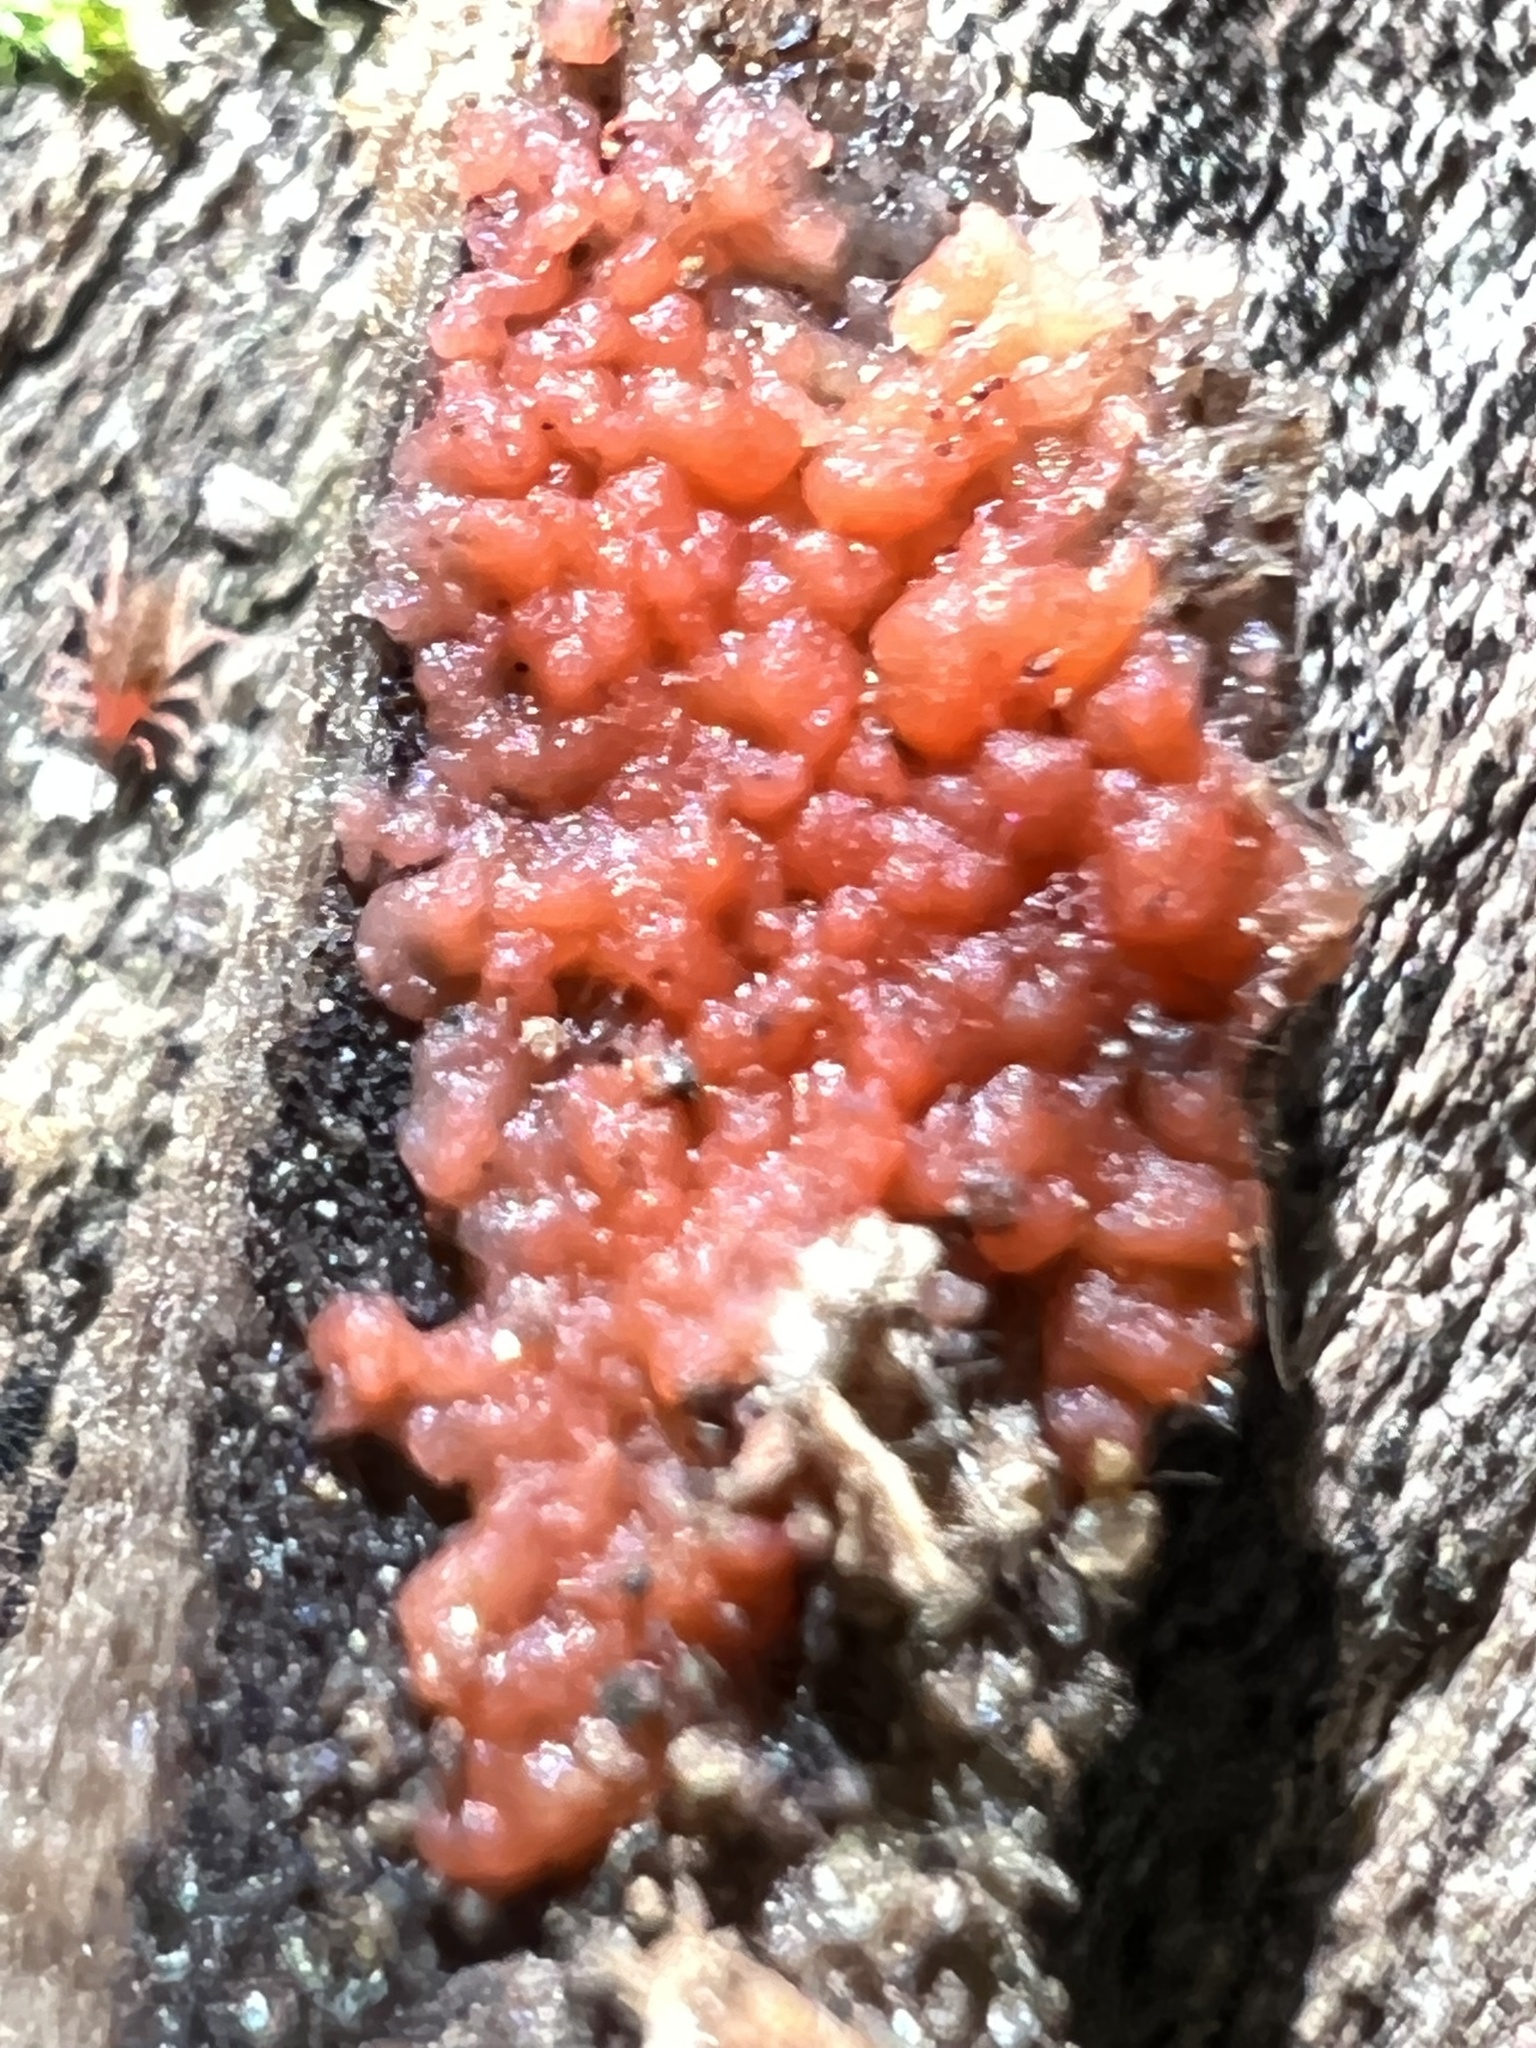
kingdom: Fungi
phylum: Basidiomycota
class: Agaricomycetes
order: Cantharellales
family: Tulasnellaceae
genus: Tulasnella
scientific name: Tulasnella aurantiaca
